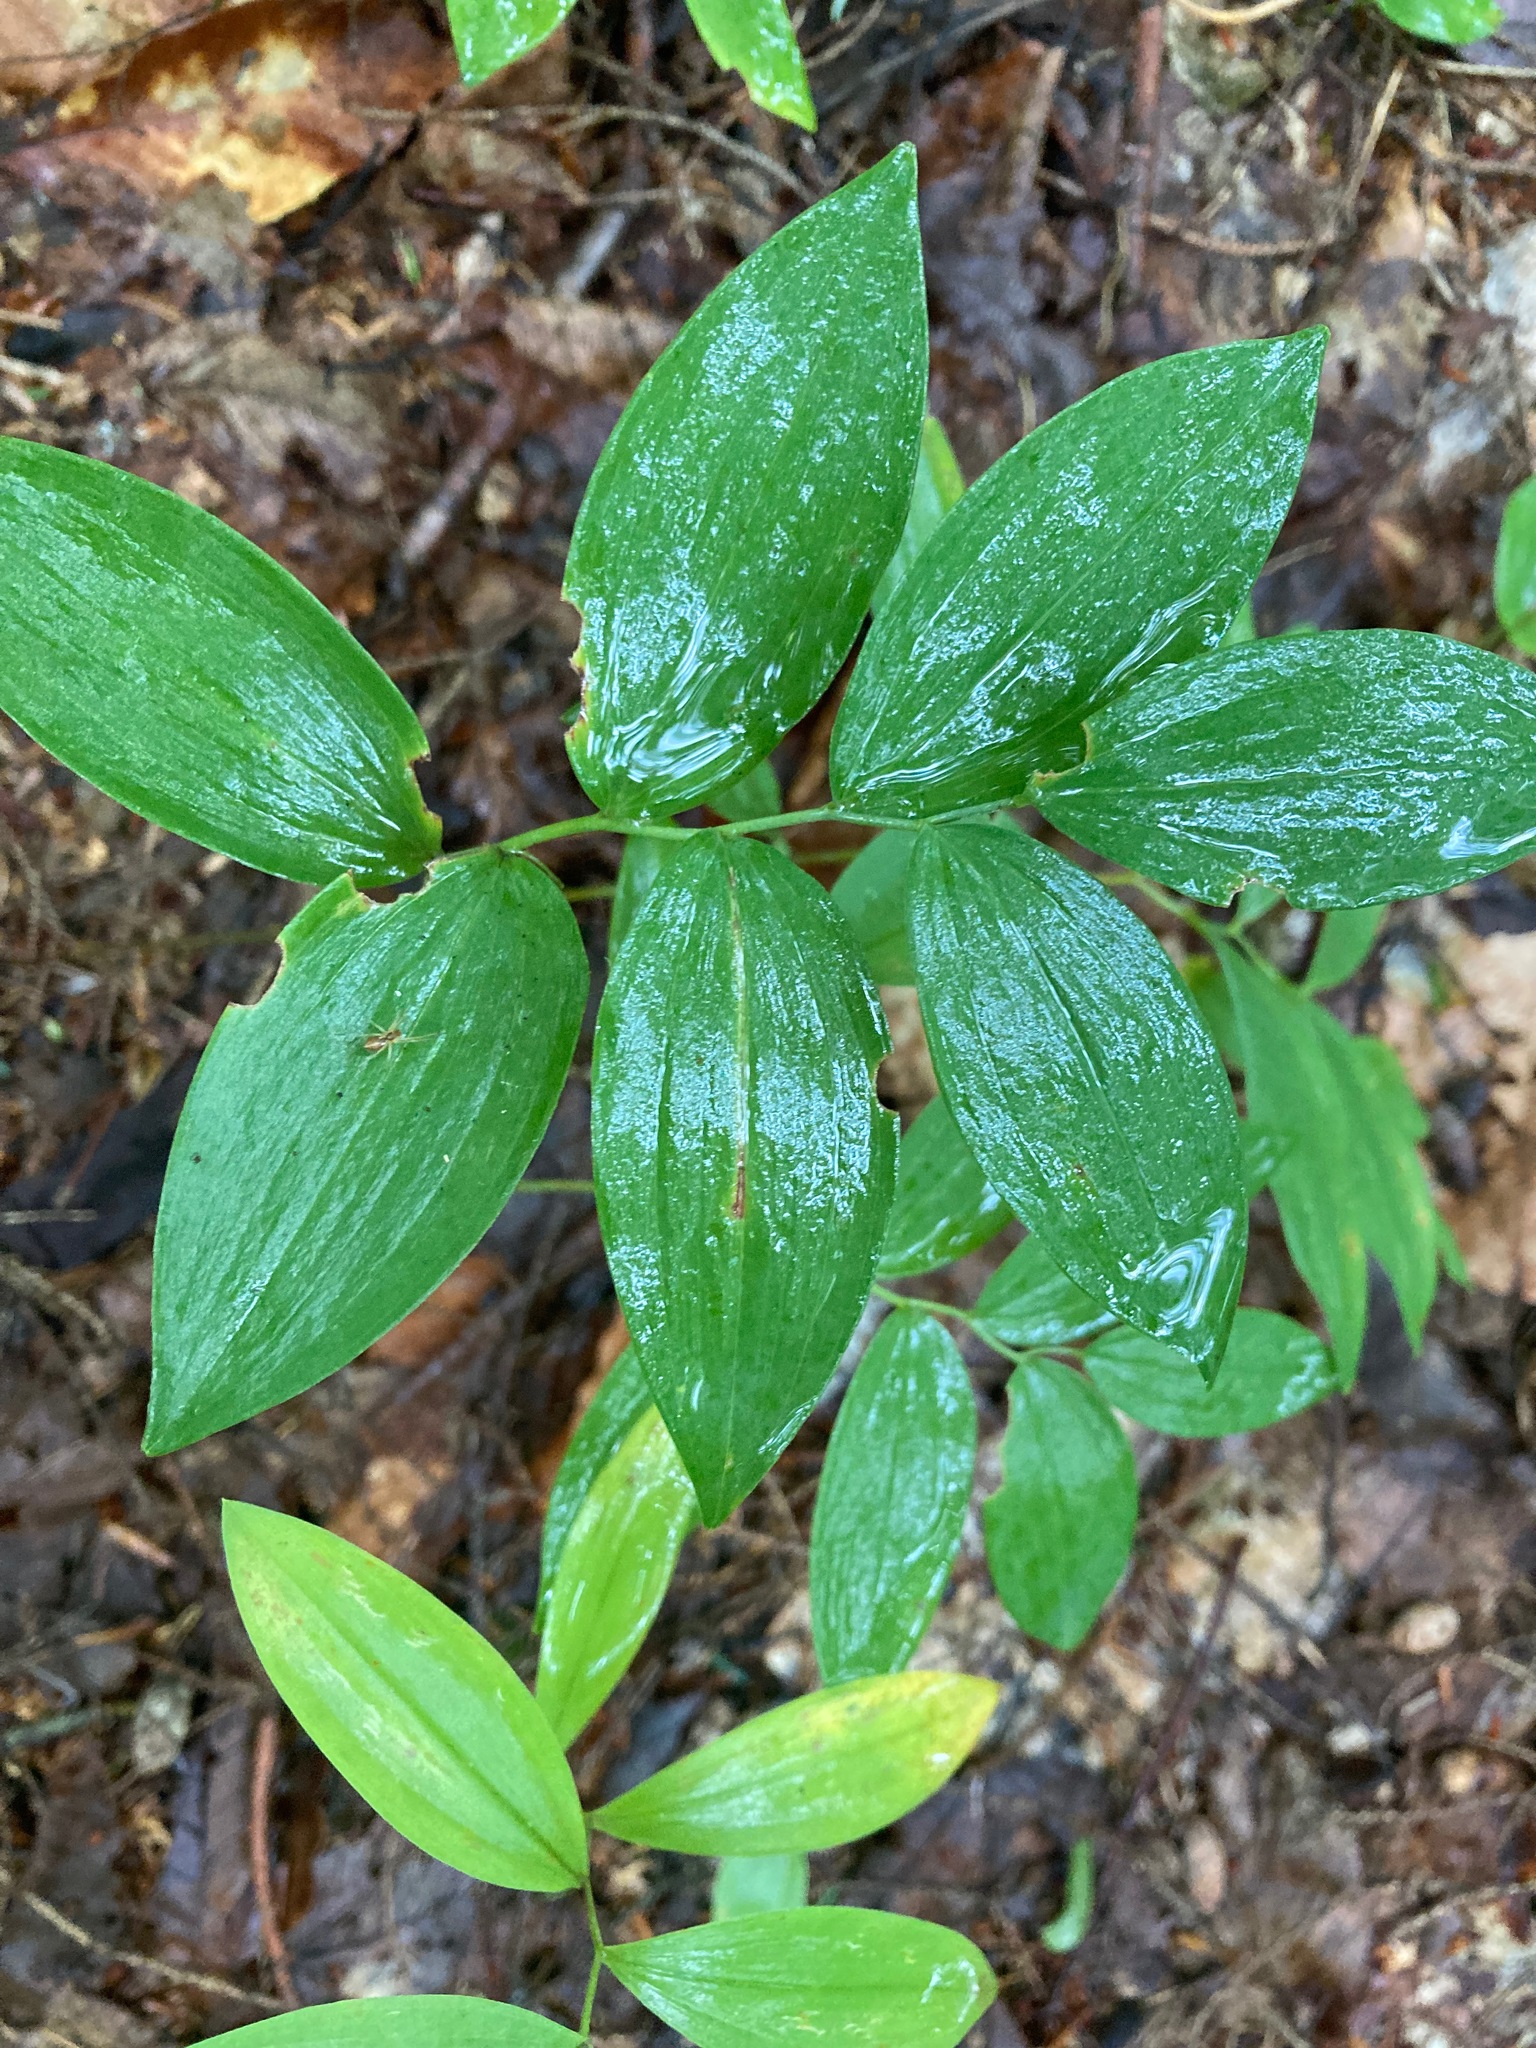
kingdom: Plantae
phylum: Tracheophyta
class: Liliopsida
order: Asparagales
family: Asparagaceae
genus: Polygonatum
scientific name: Polygonatum pubescens
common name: Downy solomon's seal
